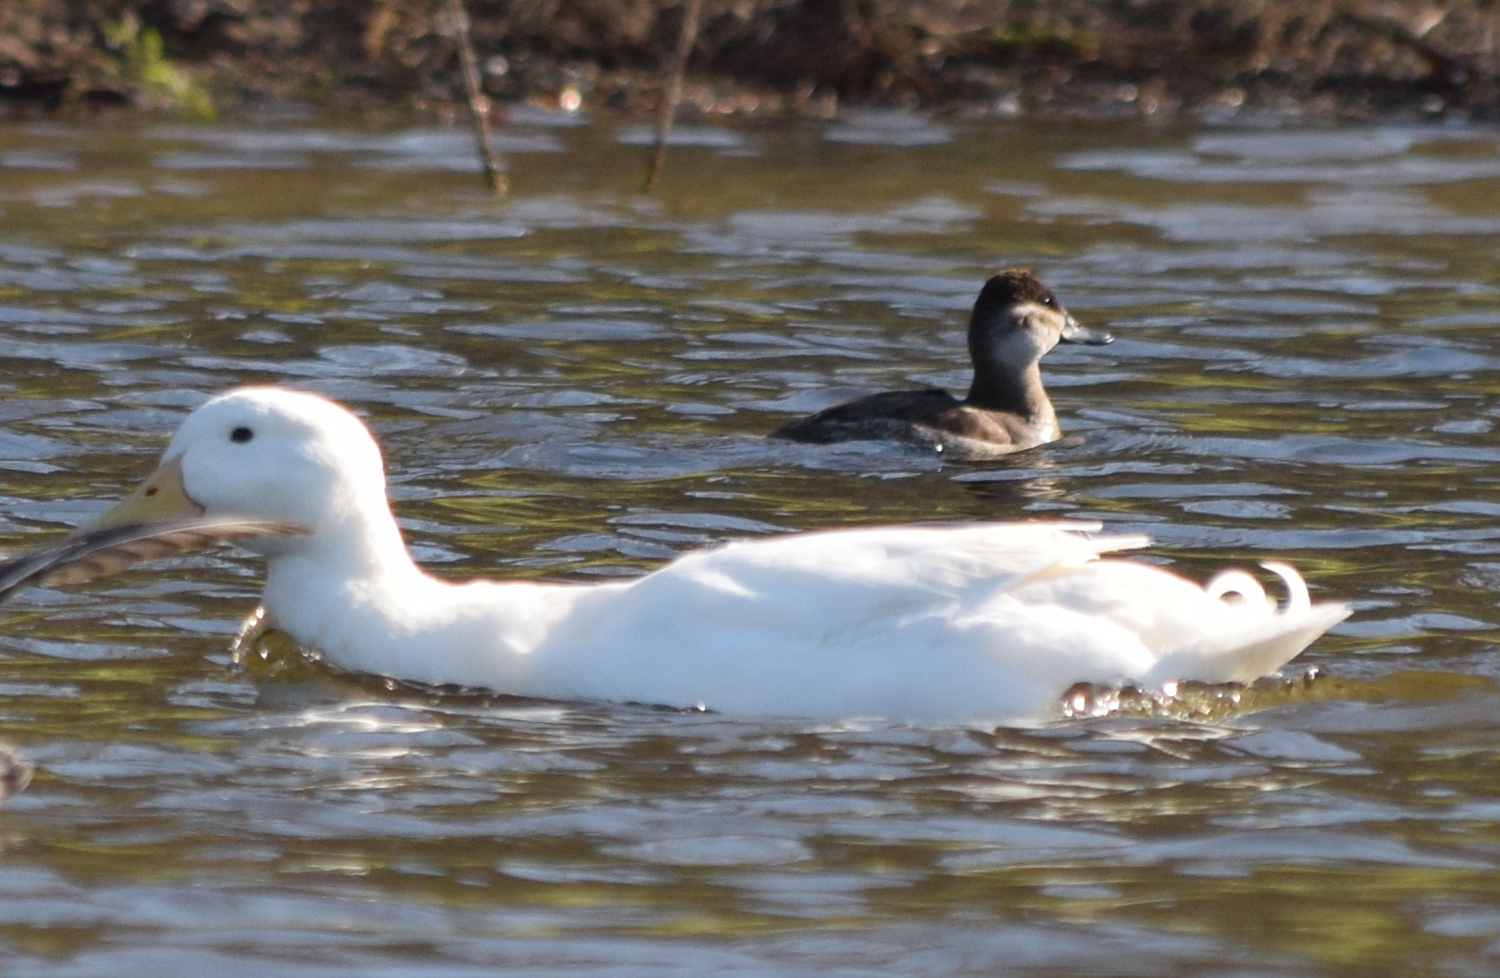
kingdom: Animalia
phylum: Chordata
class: Aves
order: Anseriformes
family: Anatidae
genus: Oxyura
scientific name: Oxyura jamaicensis
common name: Ruddy duck
